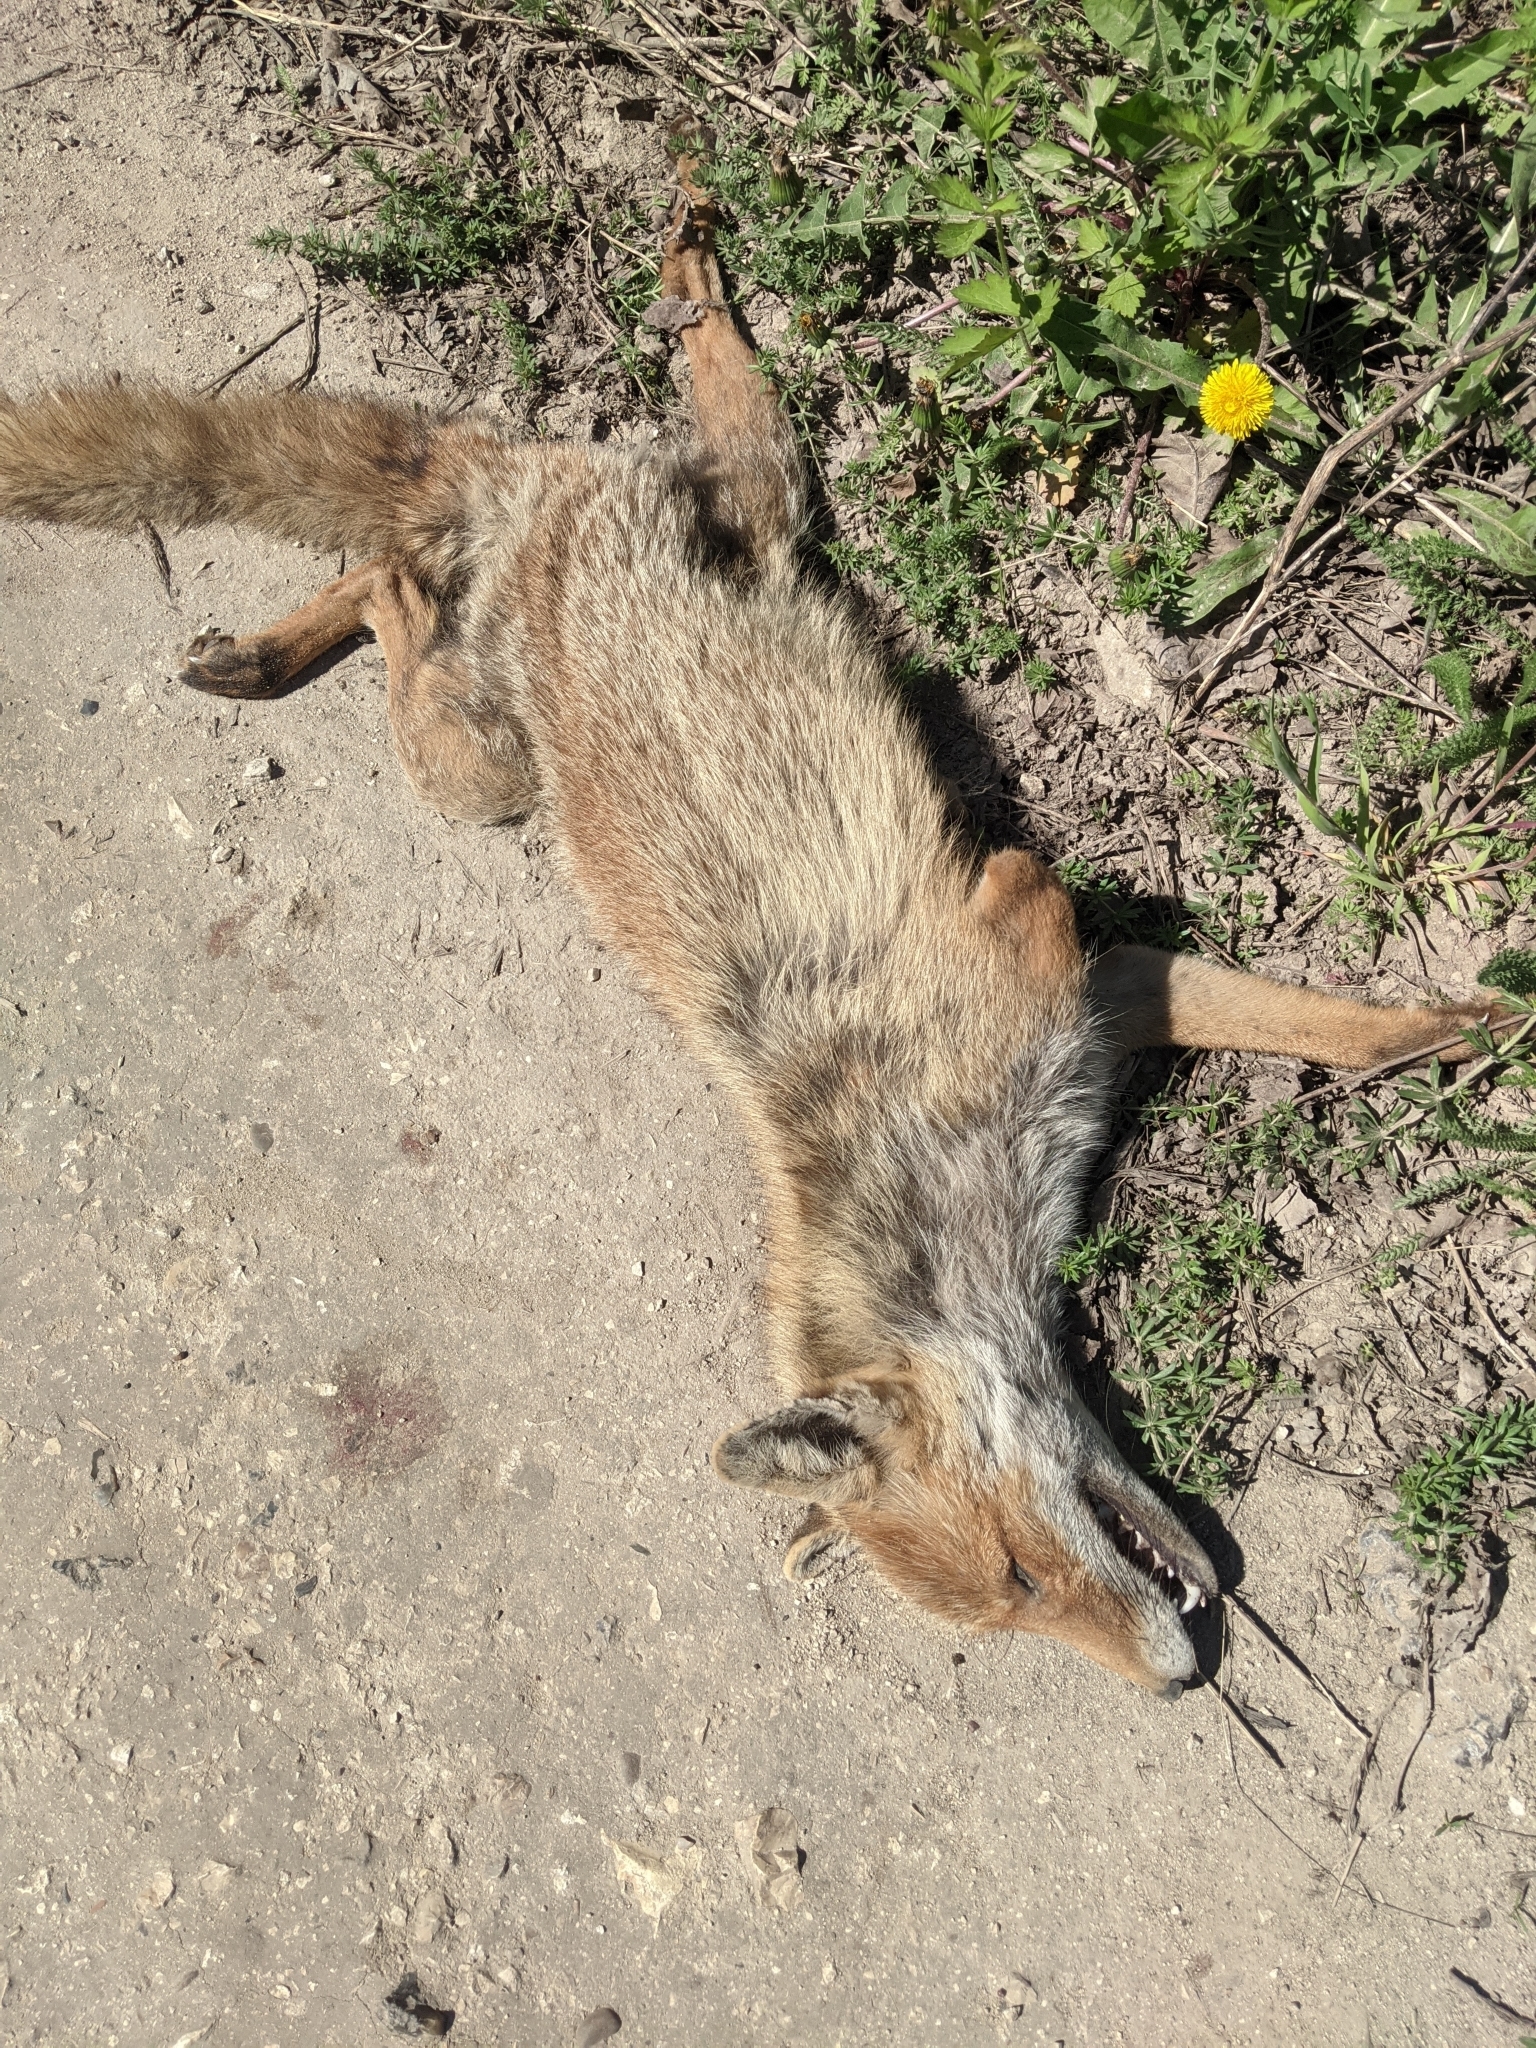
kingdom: Animalia
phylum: Chordata
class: Mammalia
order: Carnivora
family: Canidae
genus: Vulpes
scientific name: Vulpes vulpes
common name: Red fox
